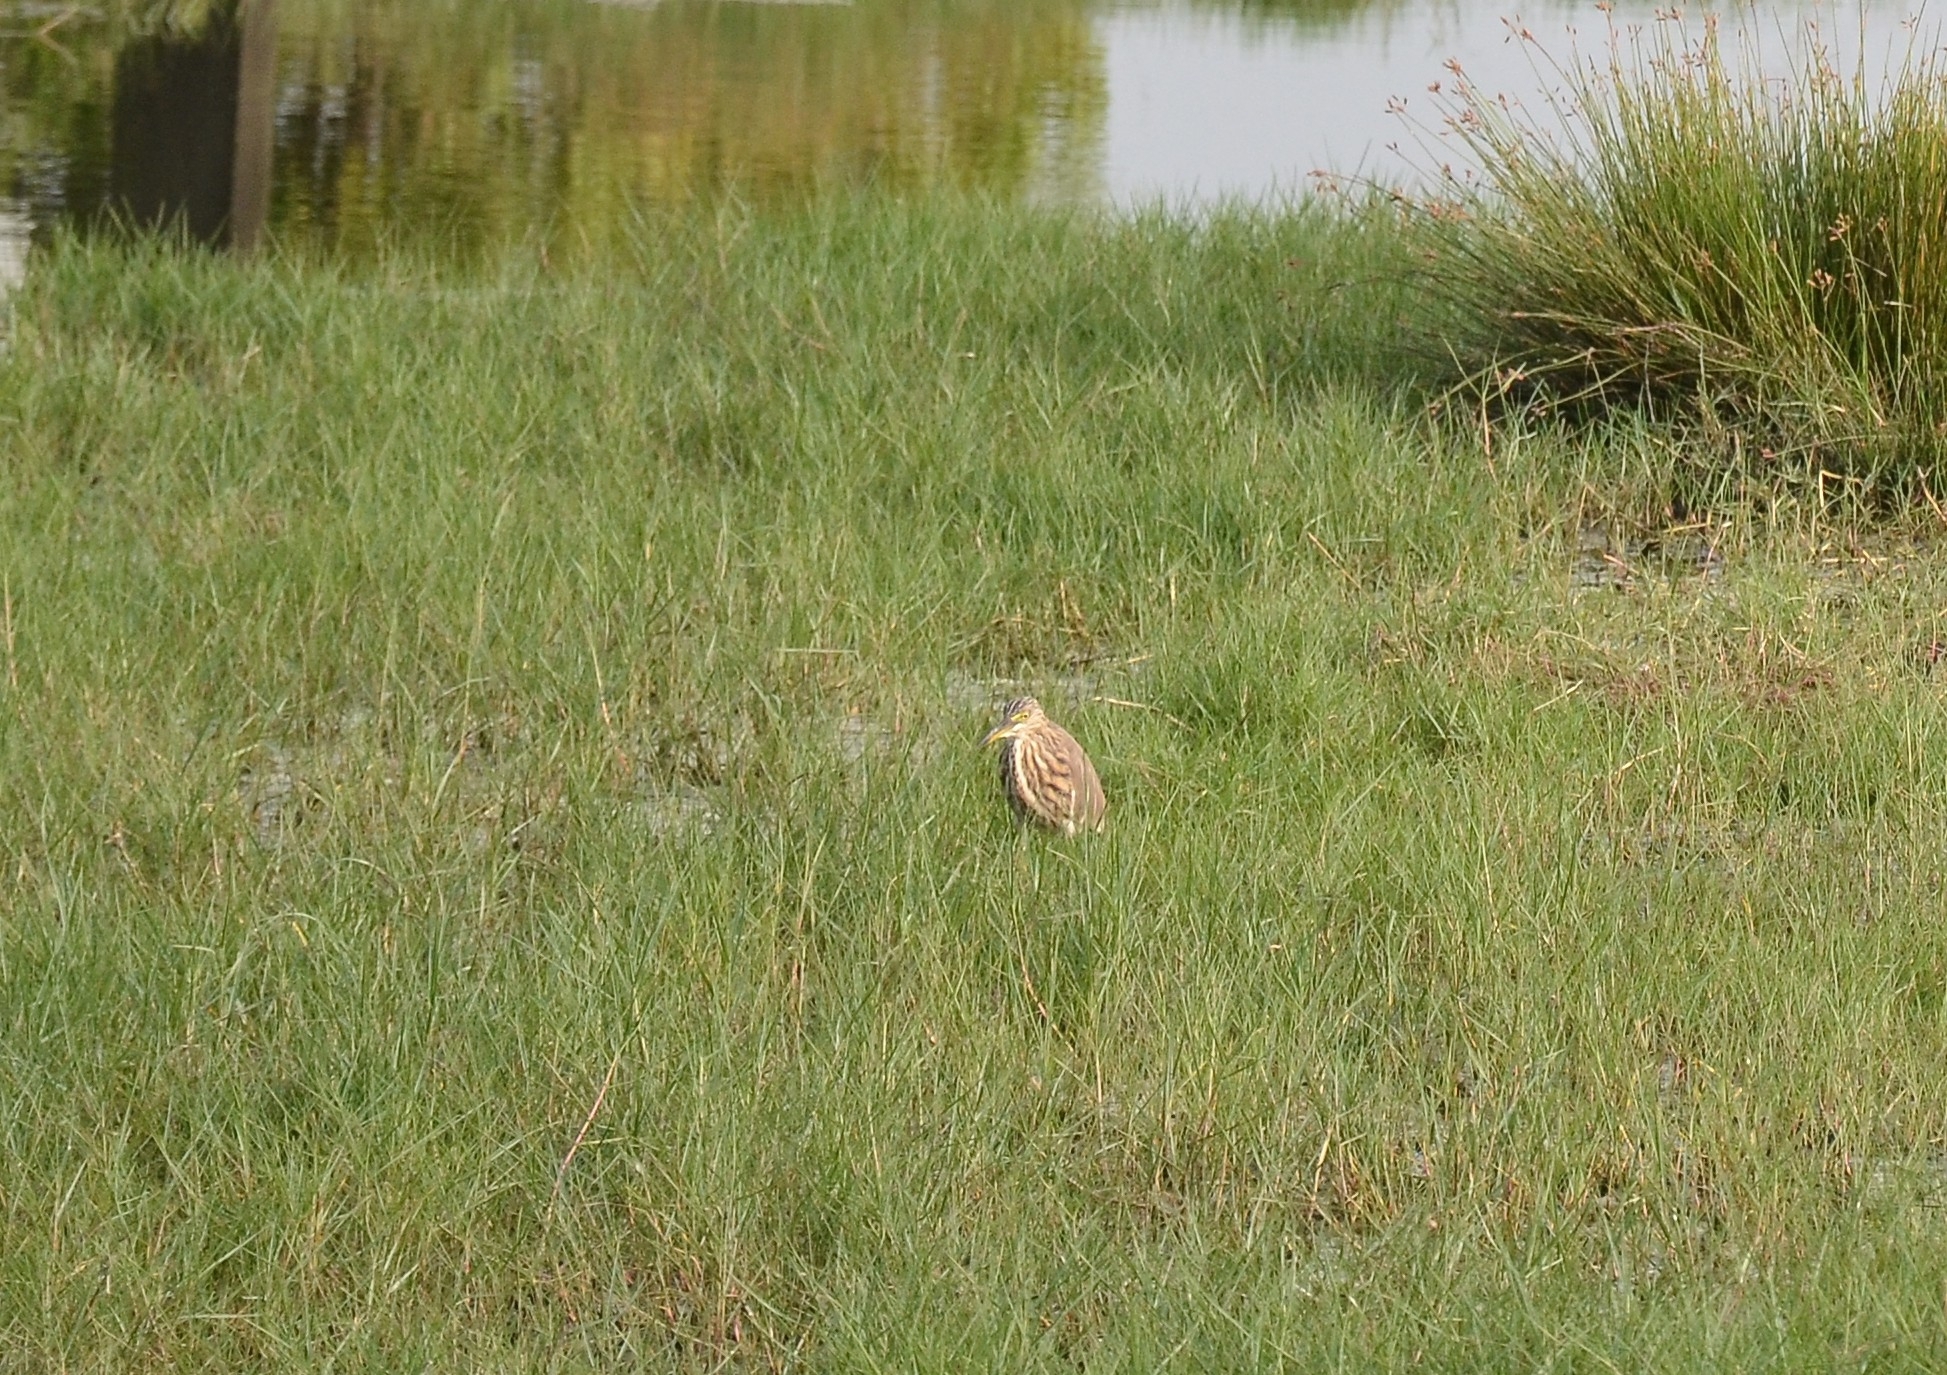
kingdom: Animalia
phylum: Chordata
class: Aves
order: Pelecaniformes
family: Ardeidae
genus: Ardeola
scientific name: Ardeola grayii
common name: Indian pond heron
